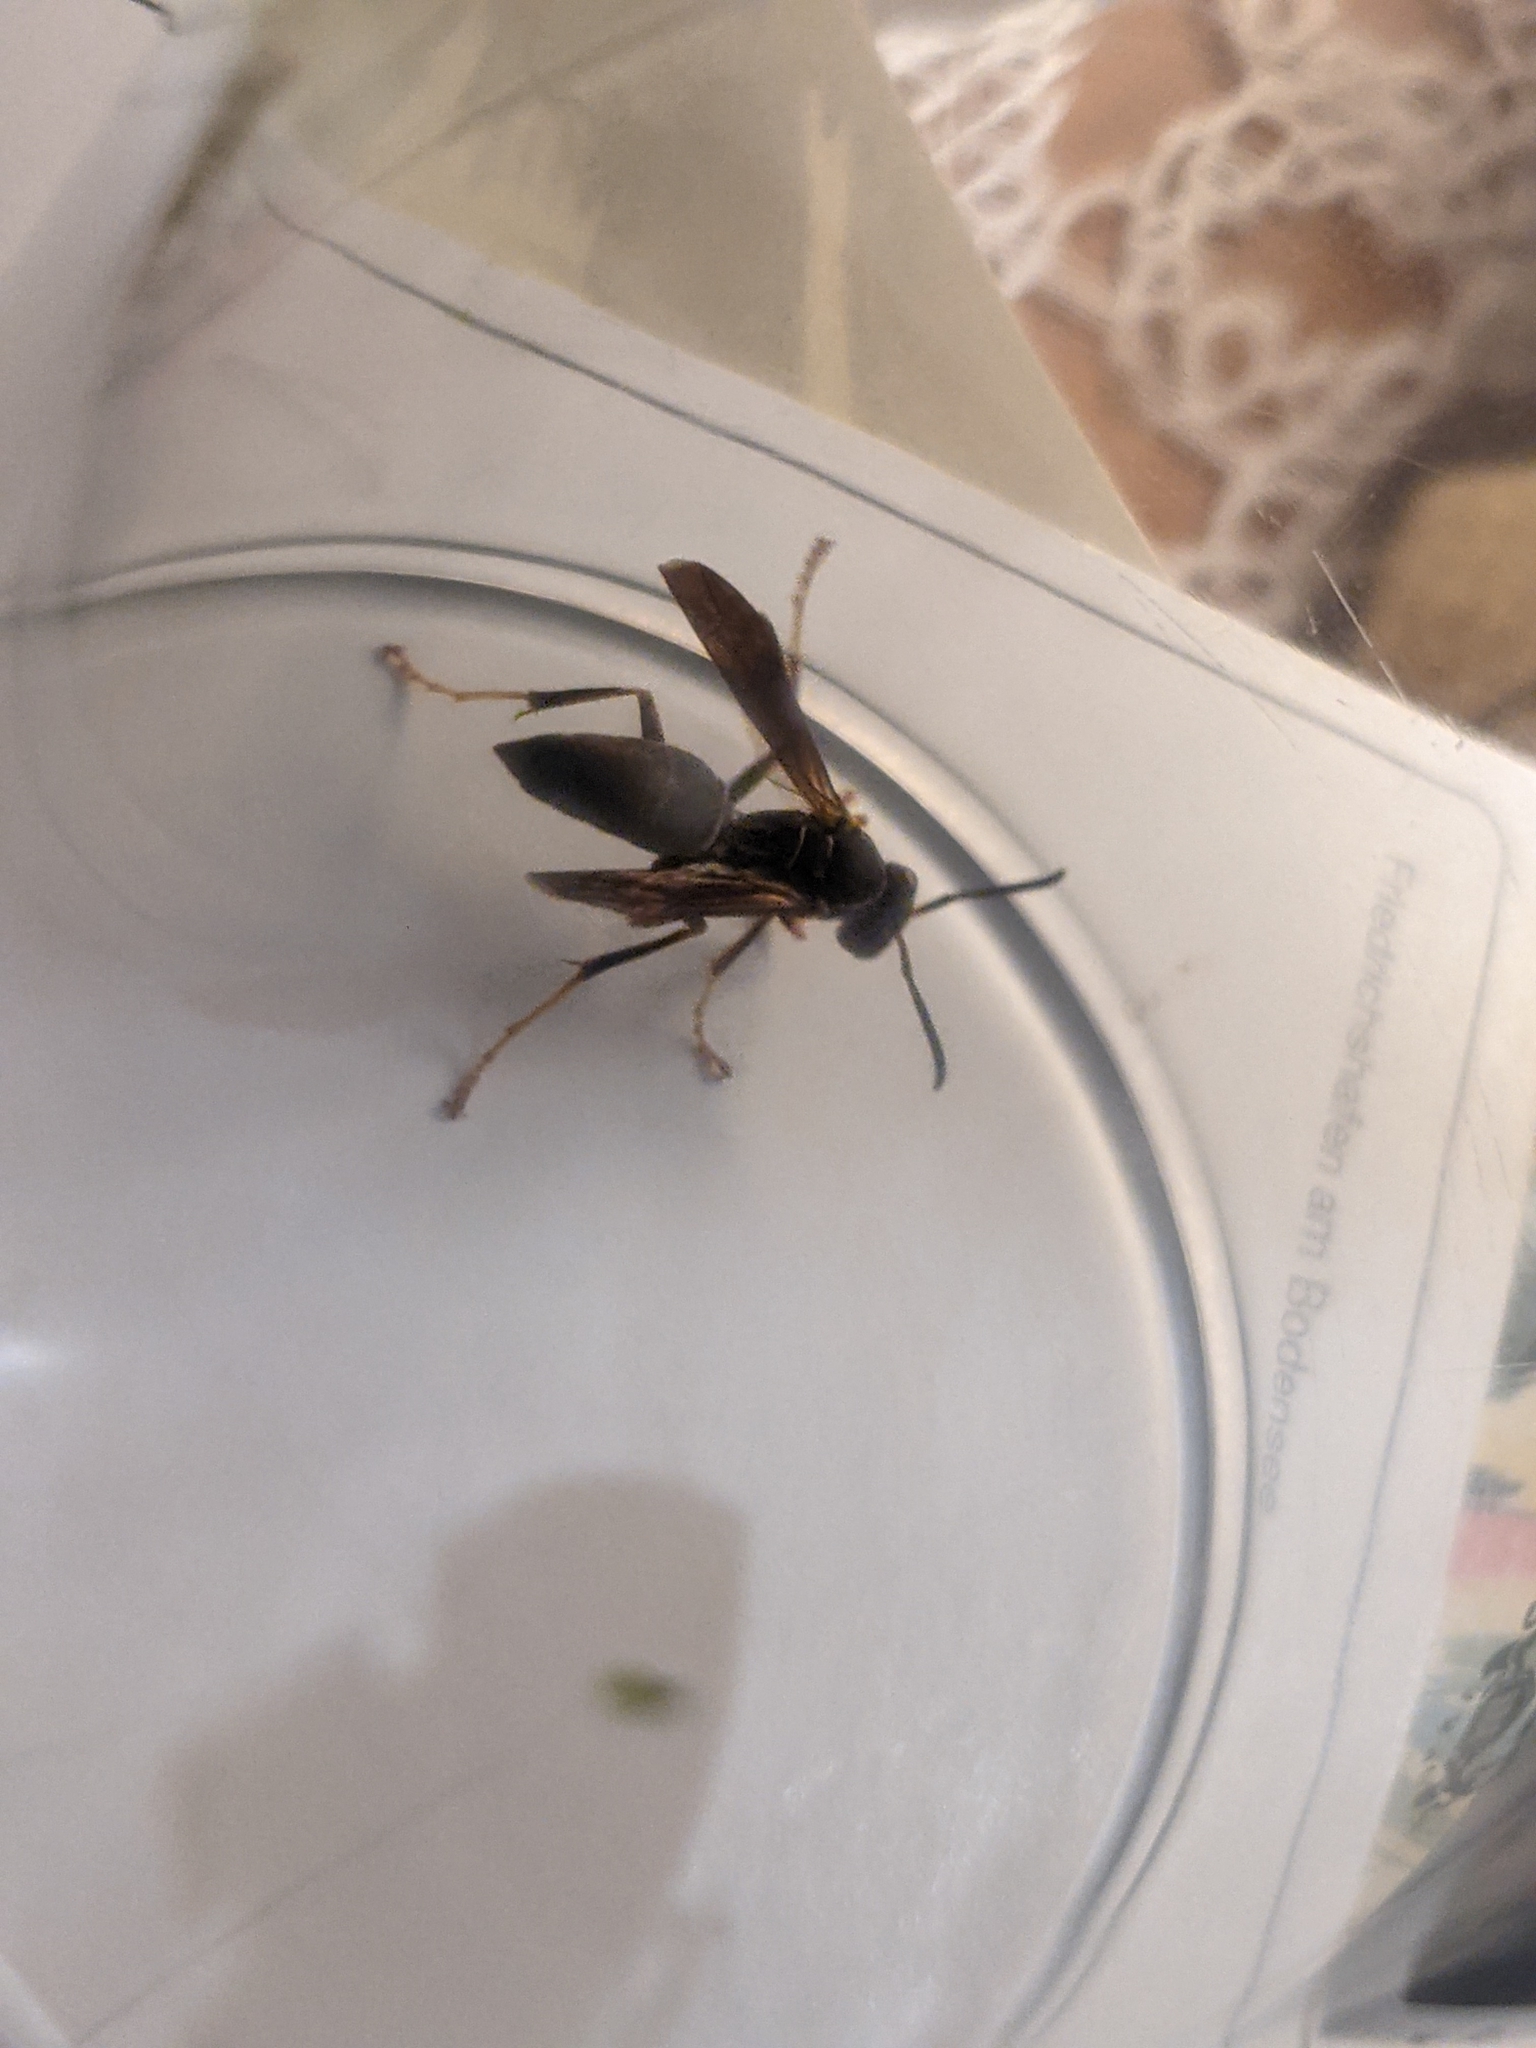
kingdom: Animalia
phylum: Arthropoda
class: Insecta
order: Hymenoptera
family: Eumenidae
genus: Polistes
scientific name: Polistes fuscatus
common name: Dark paper wasp
